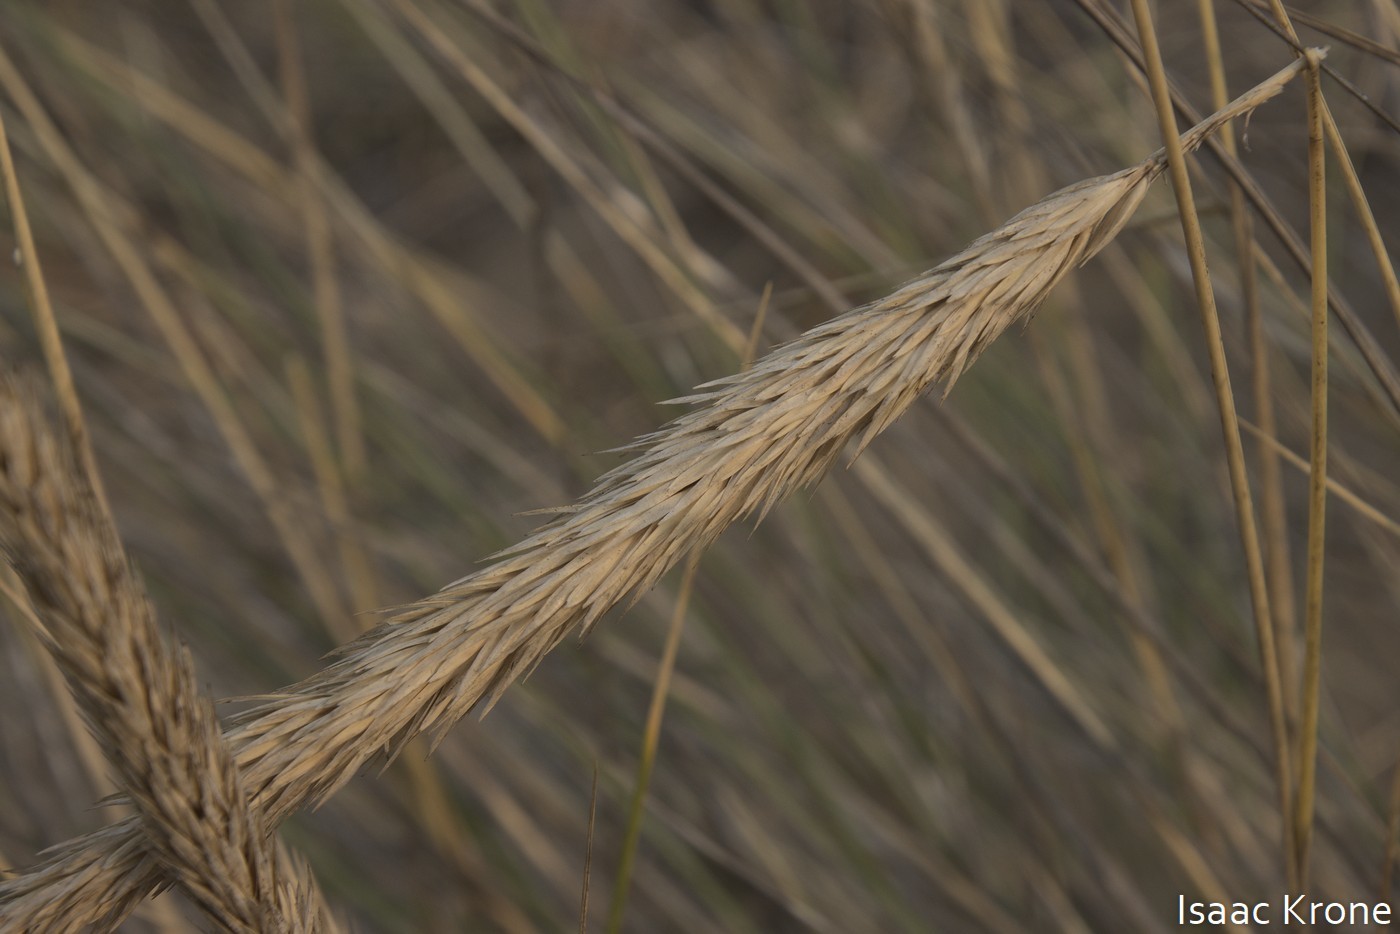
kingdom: Plantae
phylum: Tracheophyta
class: Liliopsida
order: Poales
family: Poaceae
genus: Calamagrostis
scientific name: Calamagrostis arenaria
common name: European beachgrass
